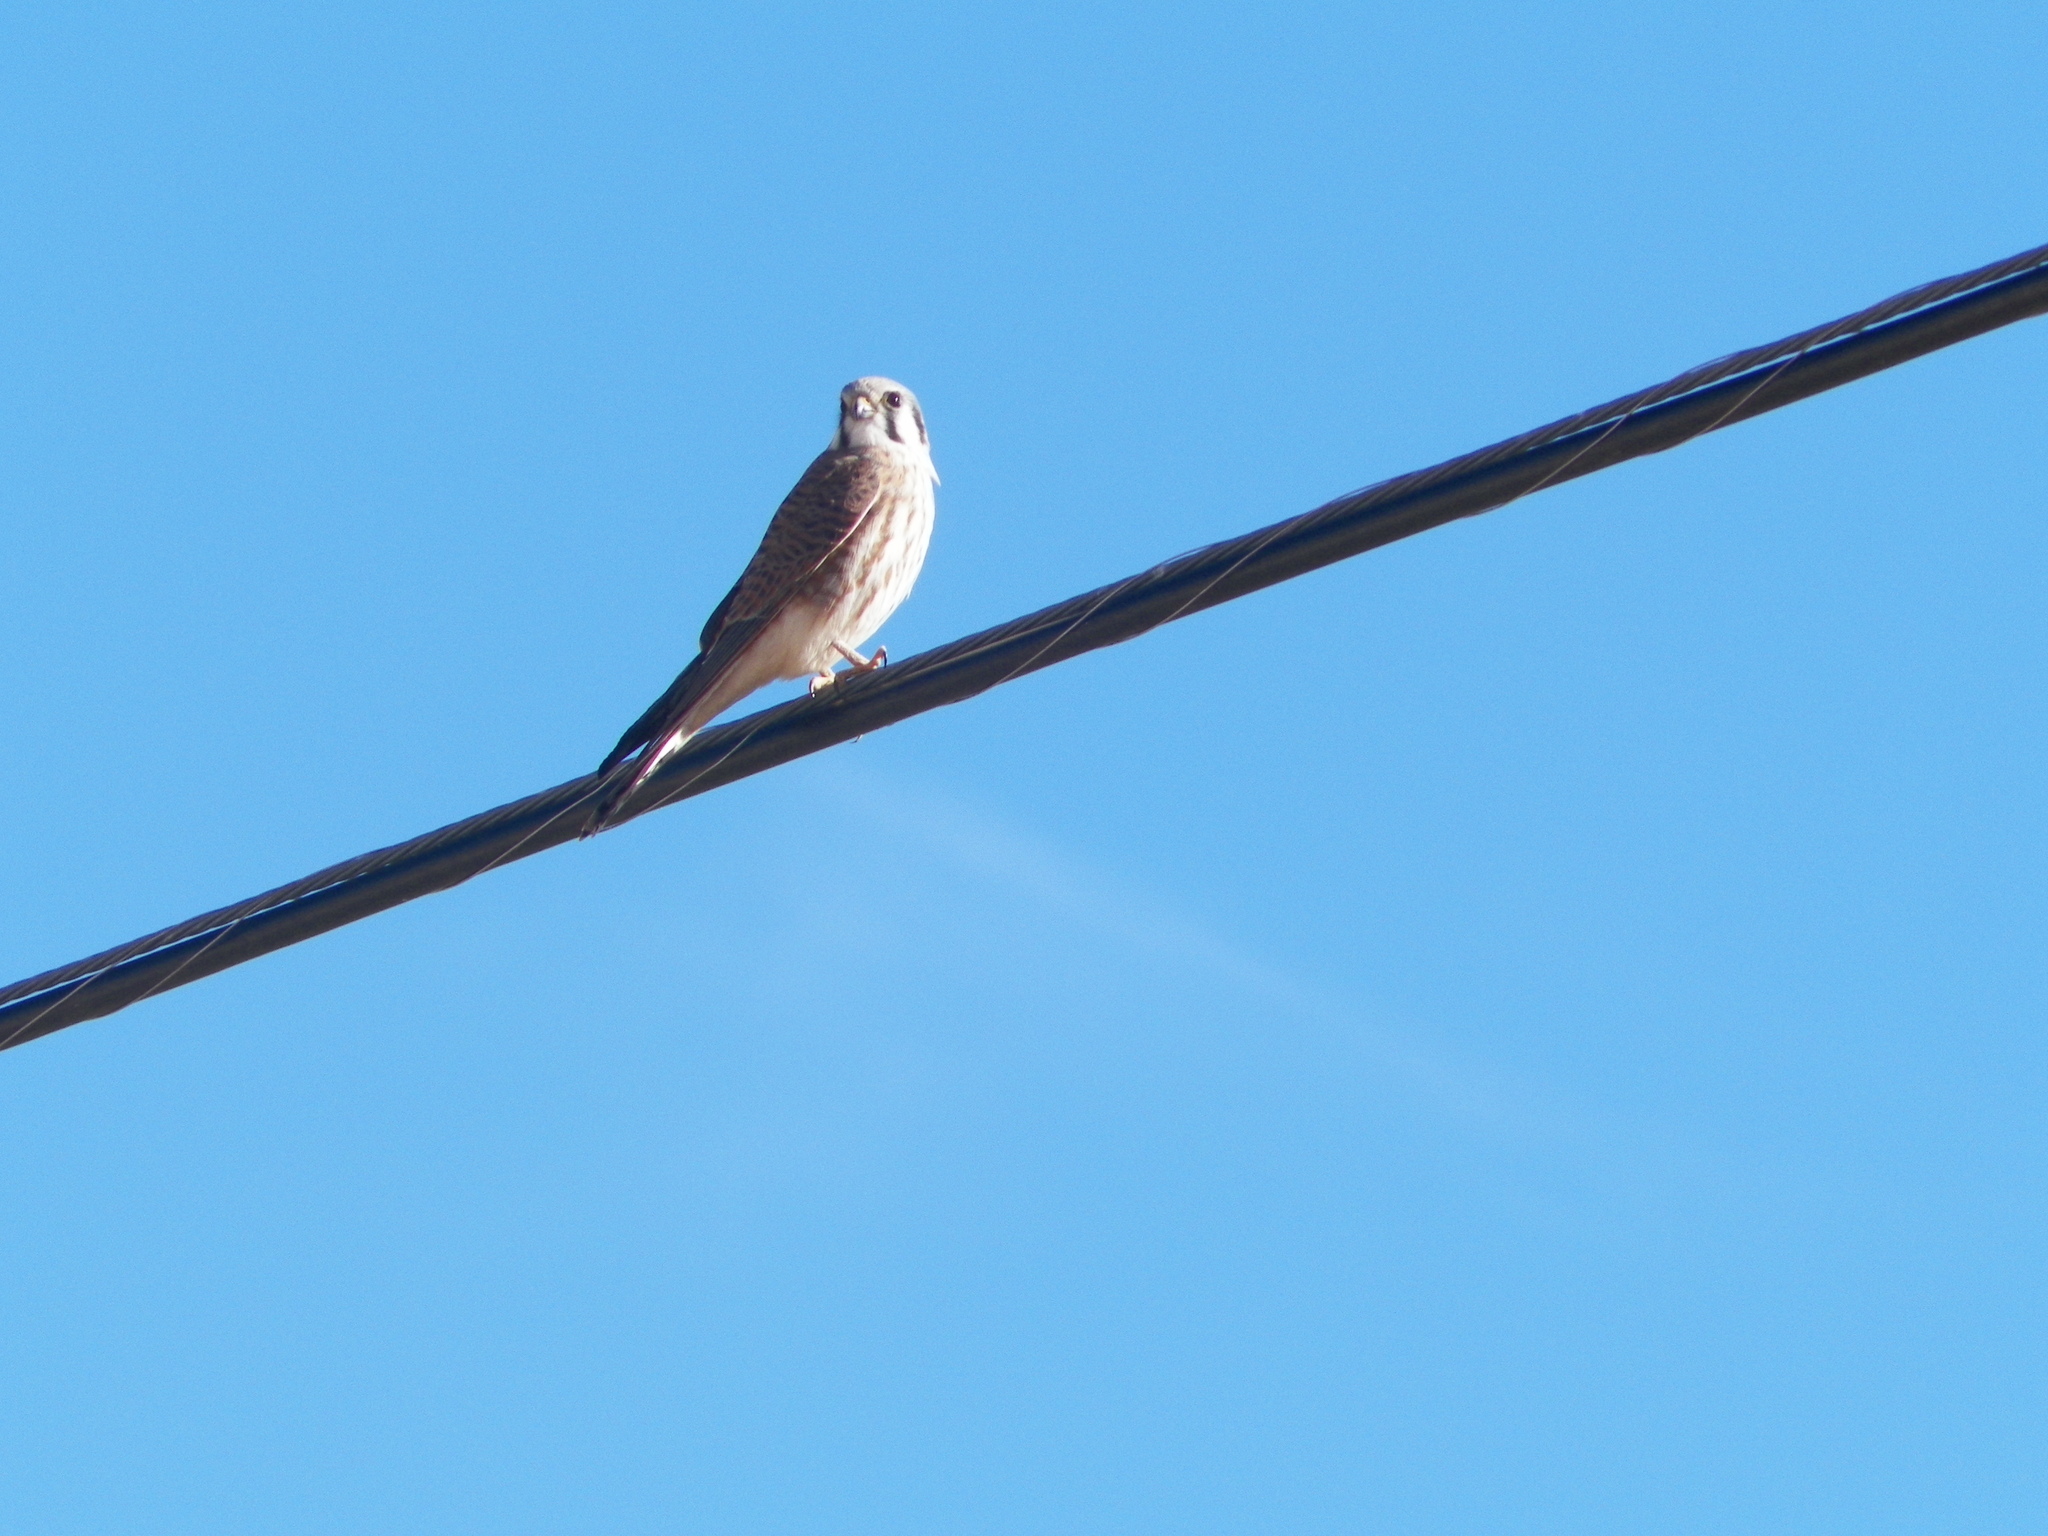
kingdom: Animalia
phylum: Chordata
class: Aves
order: Falconiformes
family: Falconidae
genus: Falco
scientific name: Falco sparverius
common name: American kestrel
